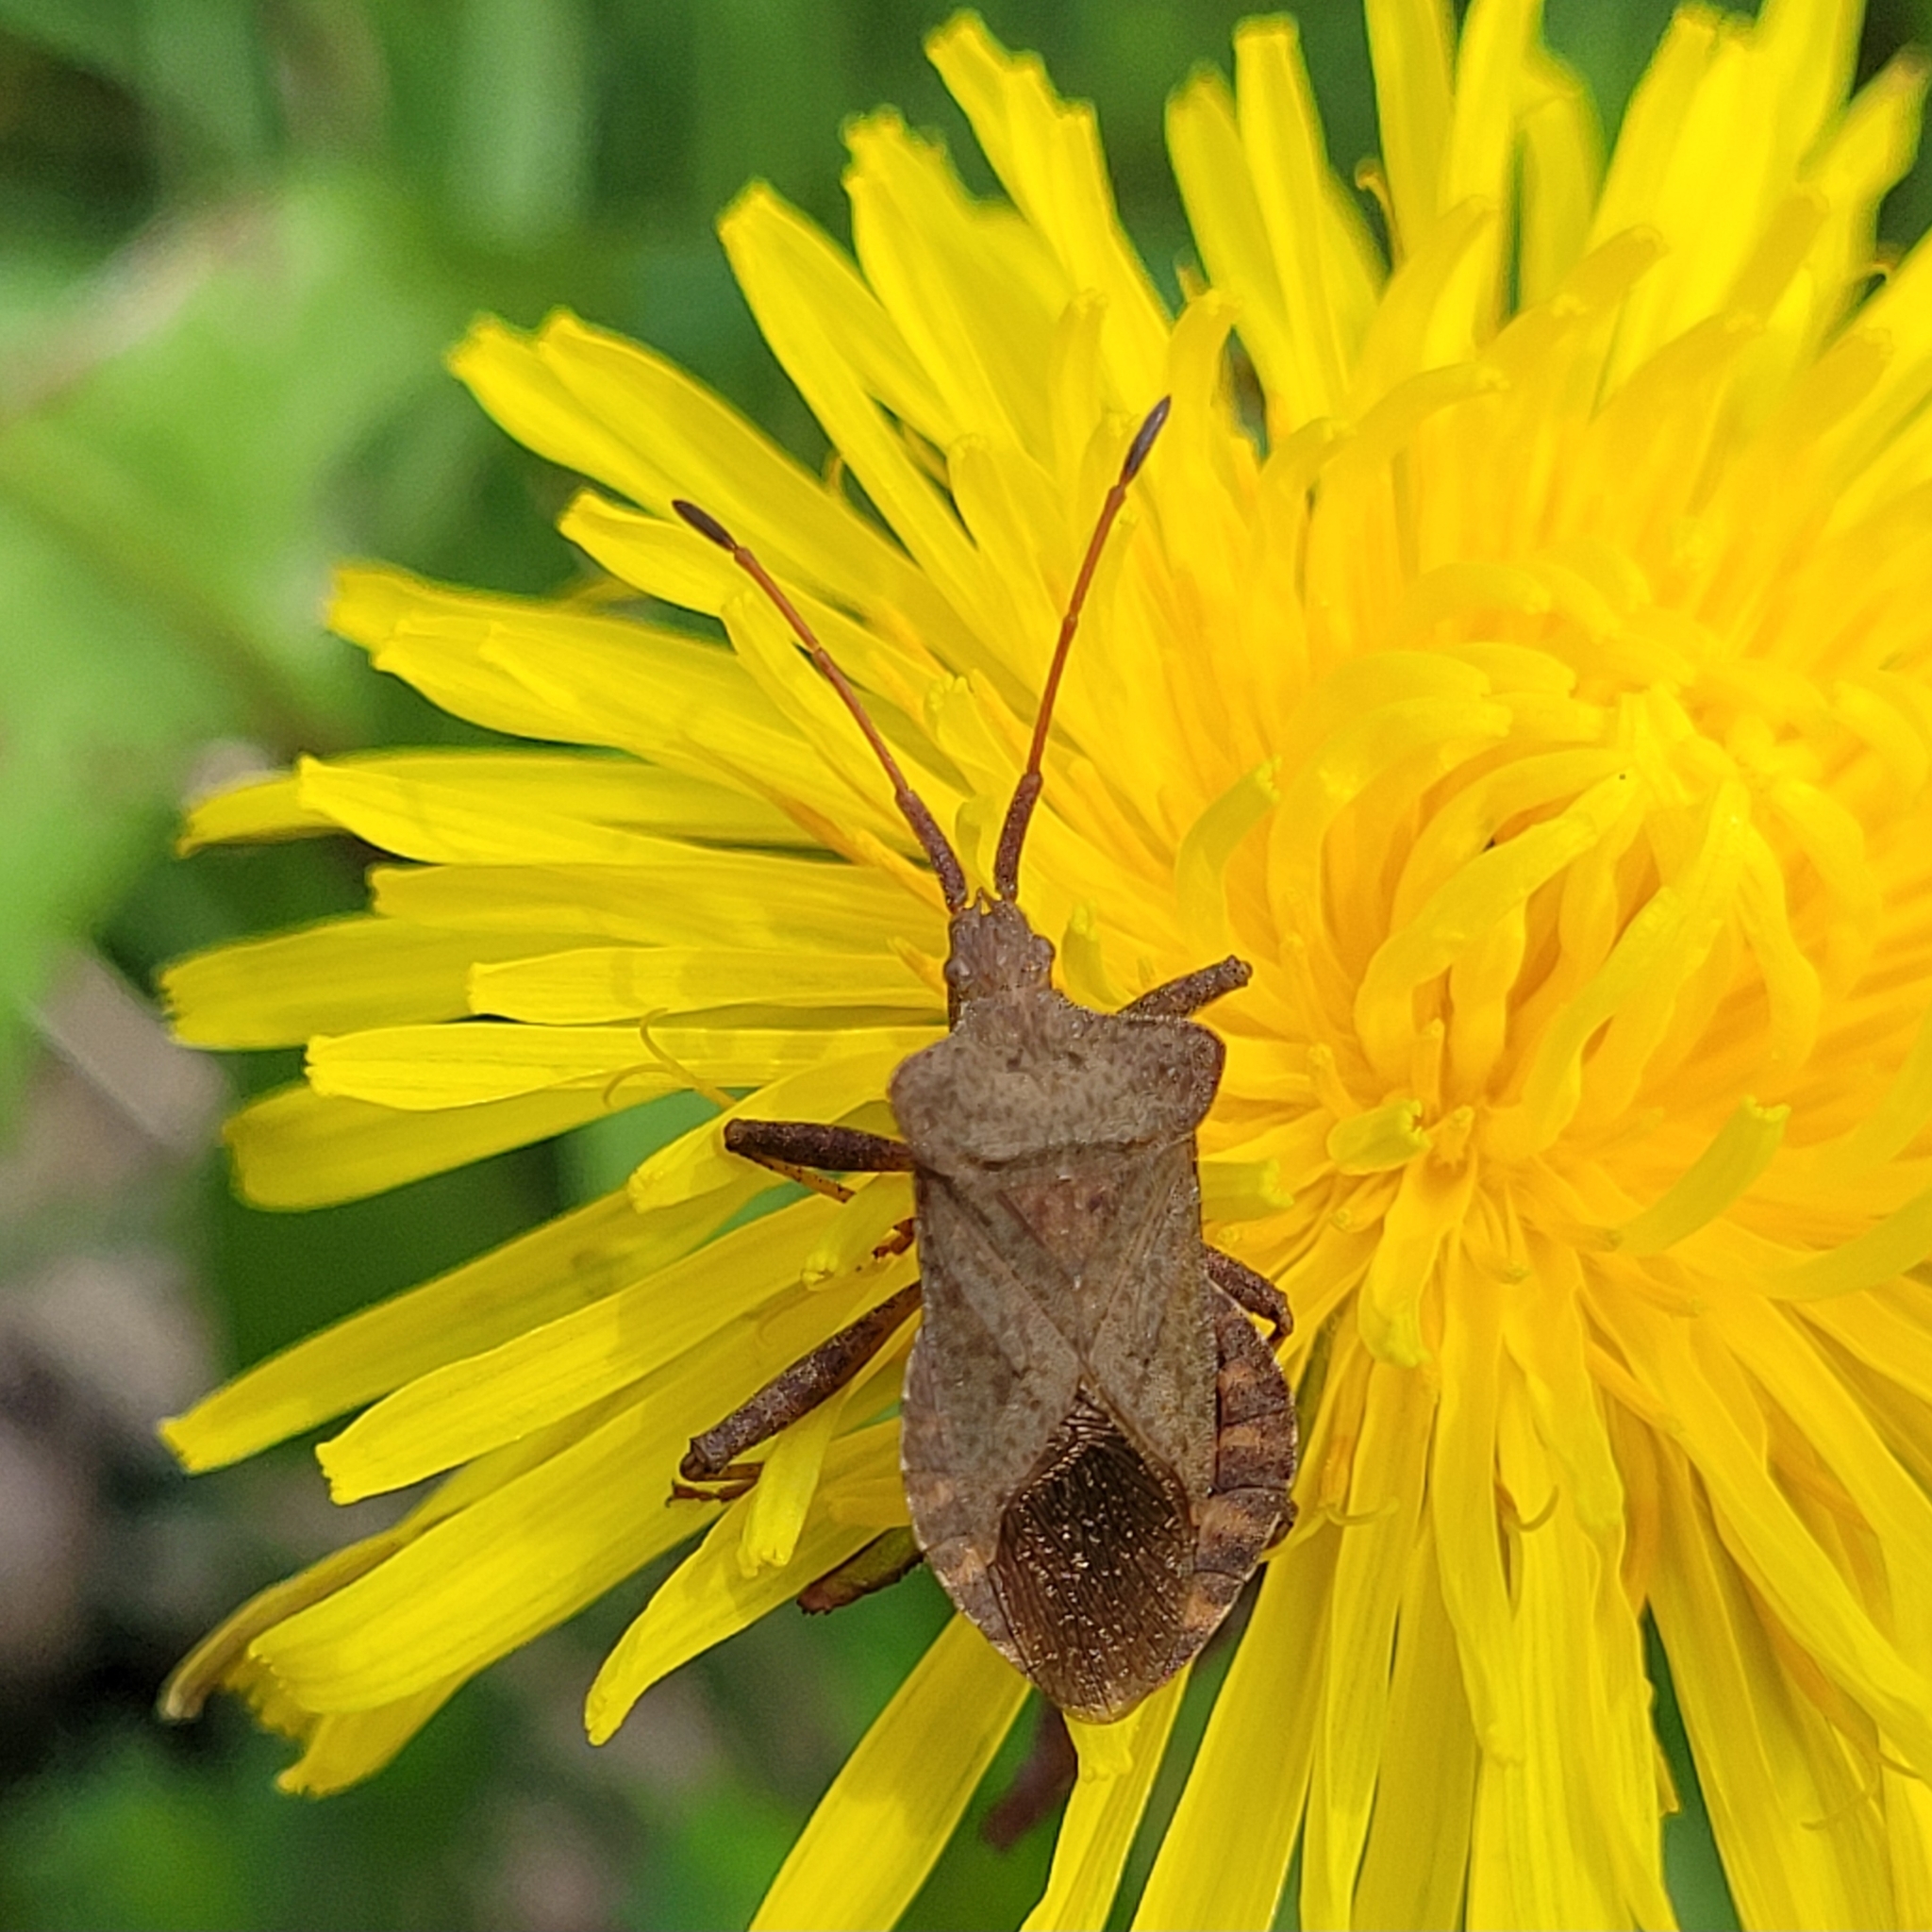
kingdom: Animalia
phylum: Arthropoda
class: Insecta
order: Hemiptera
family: Coreidae
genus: Coreus
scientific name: Coreus marginatus
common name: Dock bug
